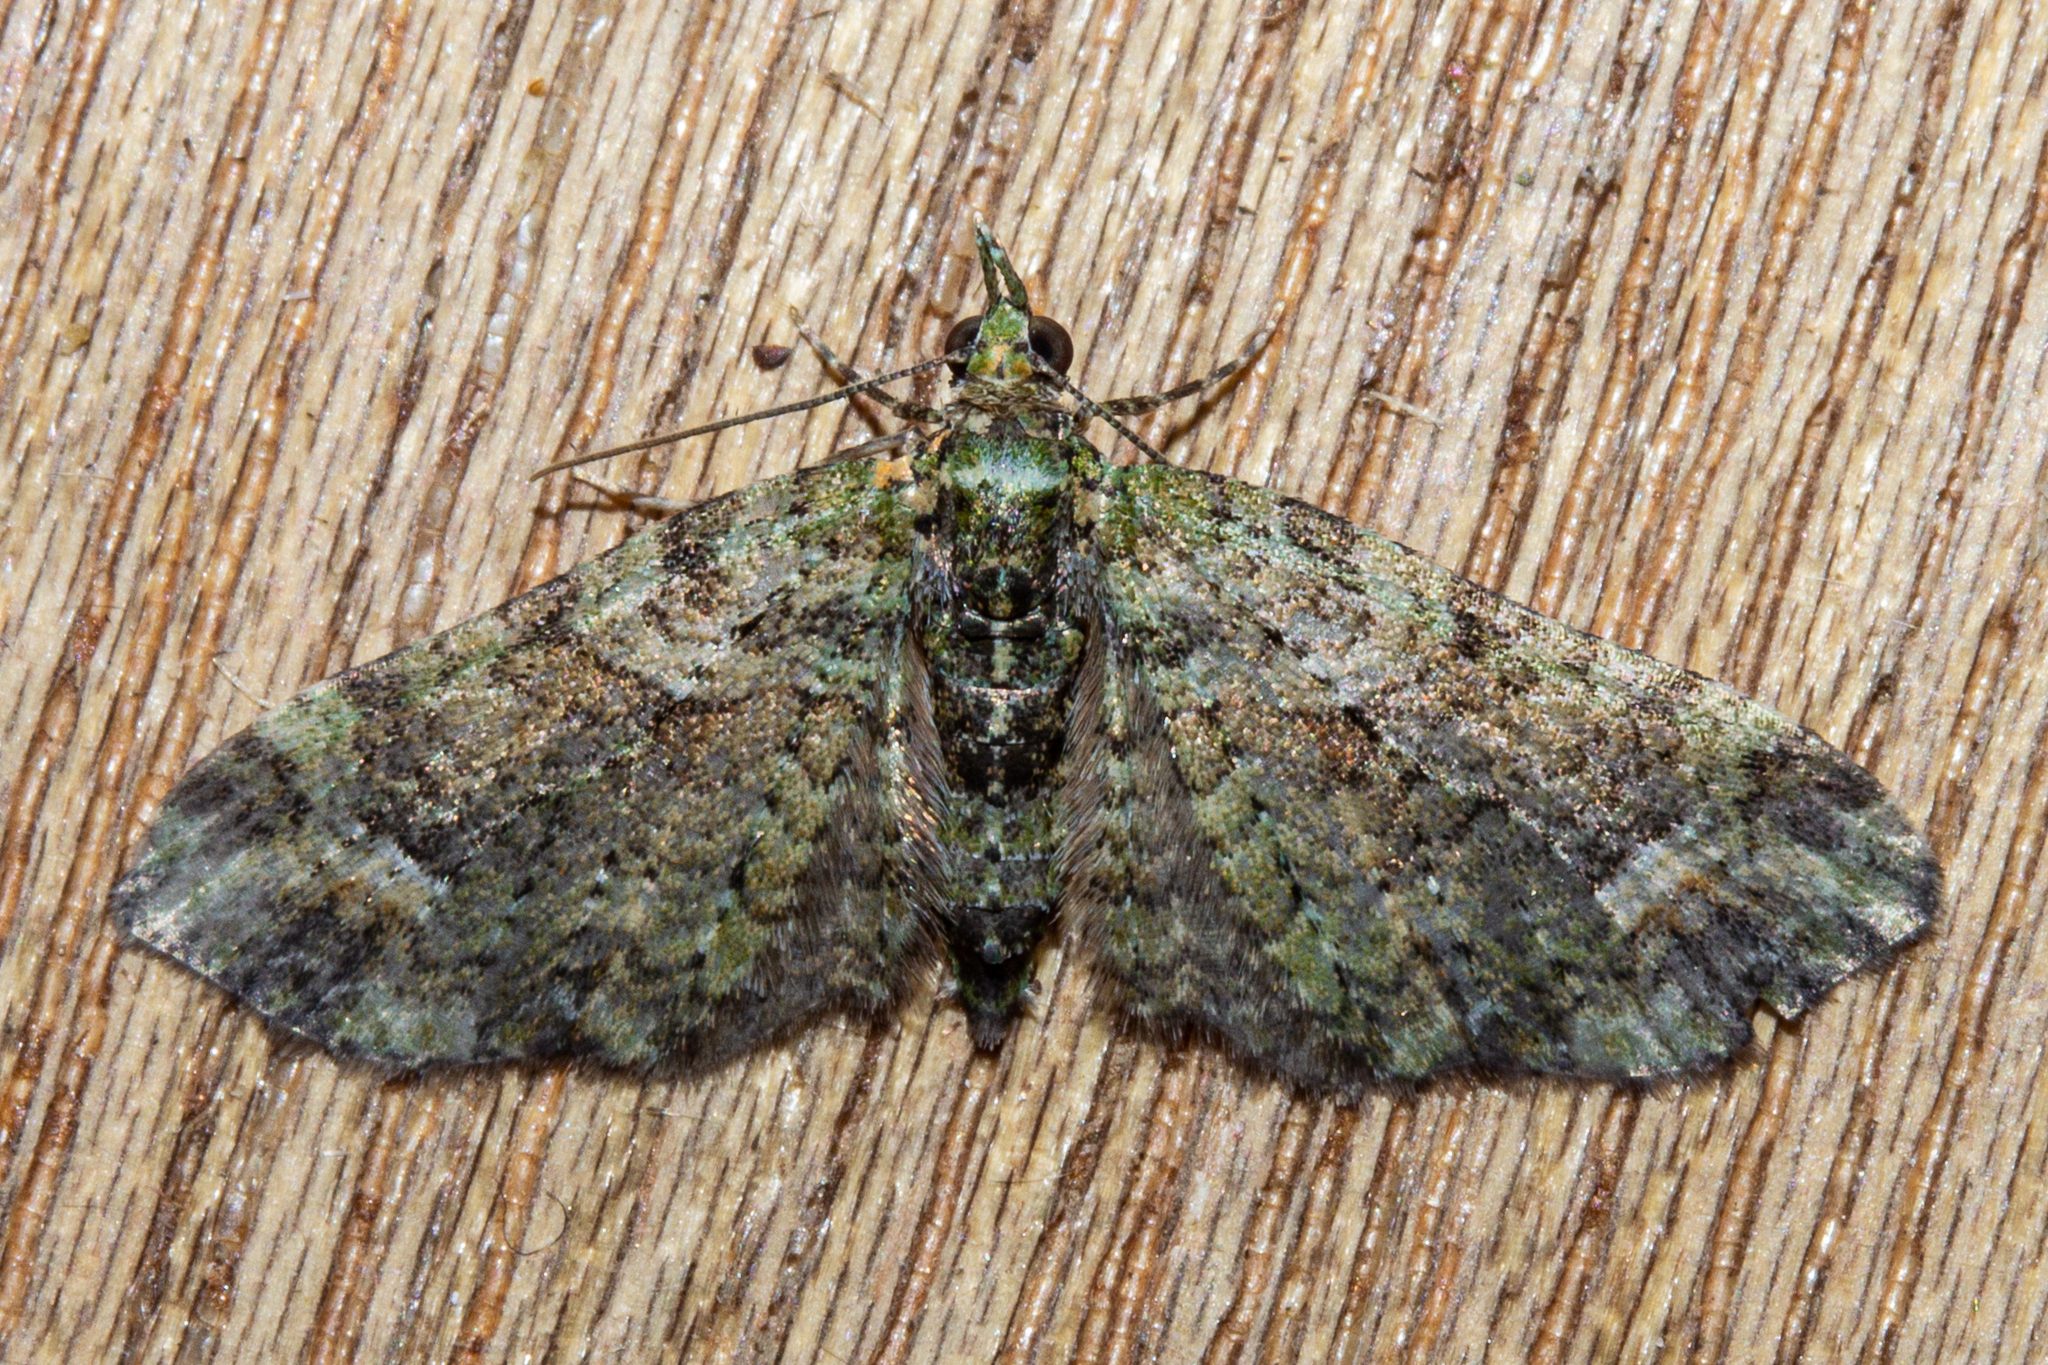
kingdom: Animalia
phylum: Arthropoda
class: Insecta
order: Lepidoptera
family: Geometridae
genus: Idaea
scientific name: Idaea mutanda
